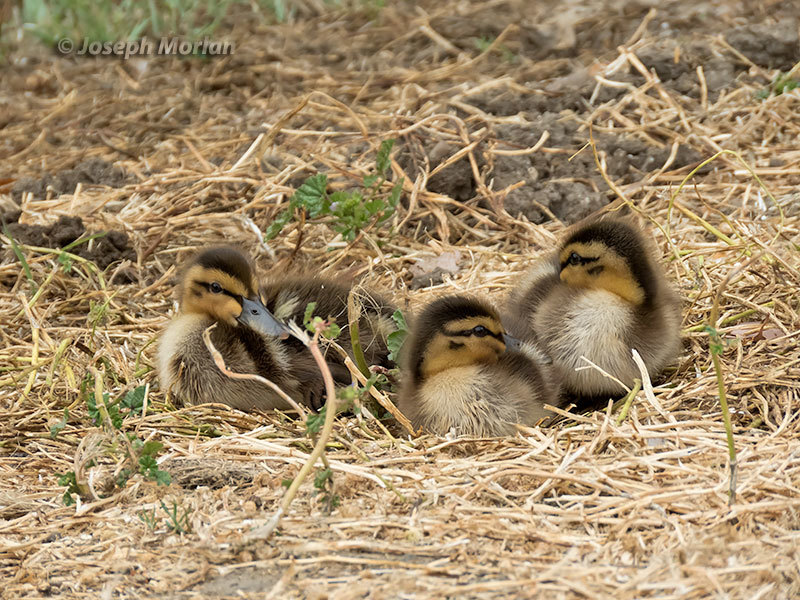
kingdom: Animalia
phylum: Chordata
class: Aves
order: Anseriformes
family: Anatidae
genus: Anas
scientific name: Anas platyrhynchos
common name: Mallard
